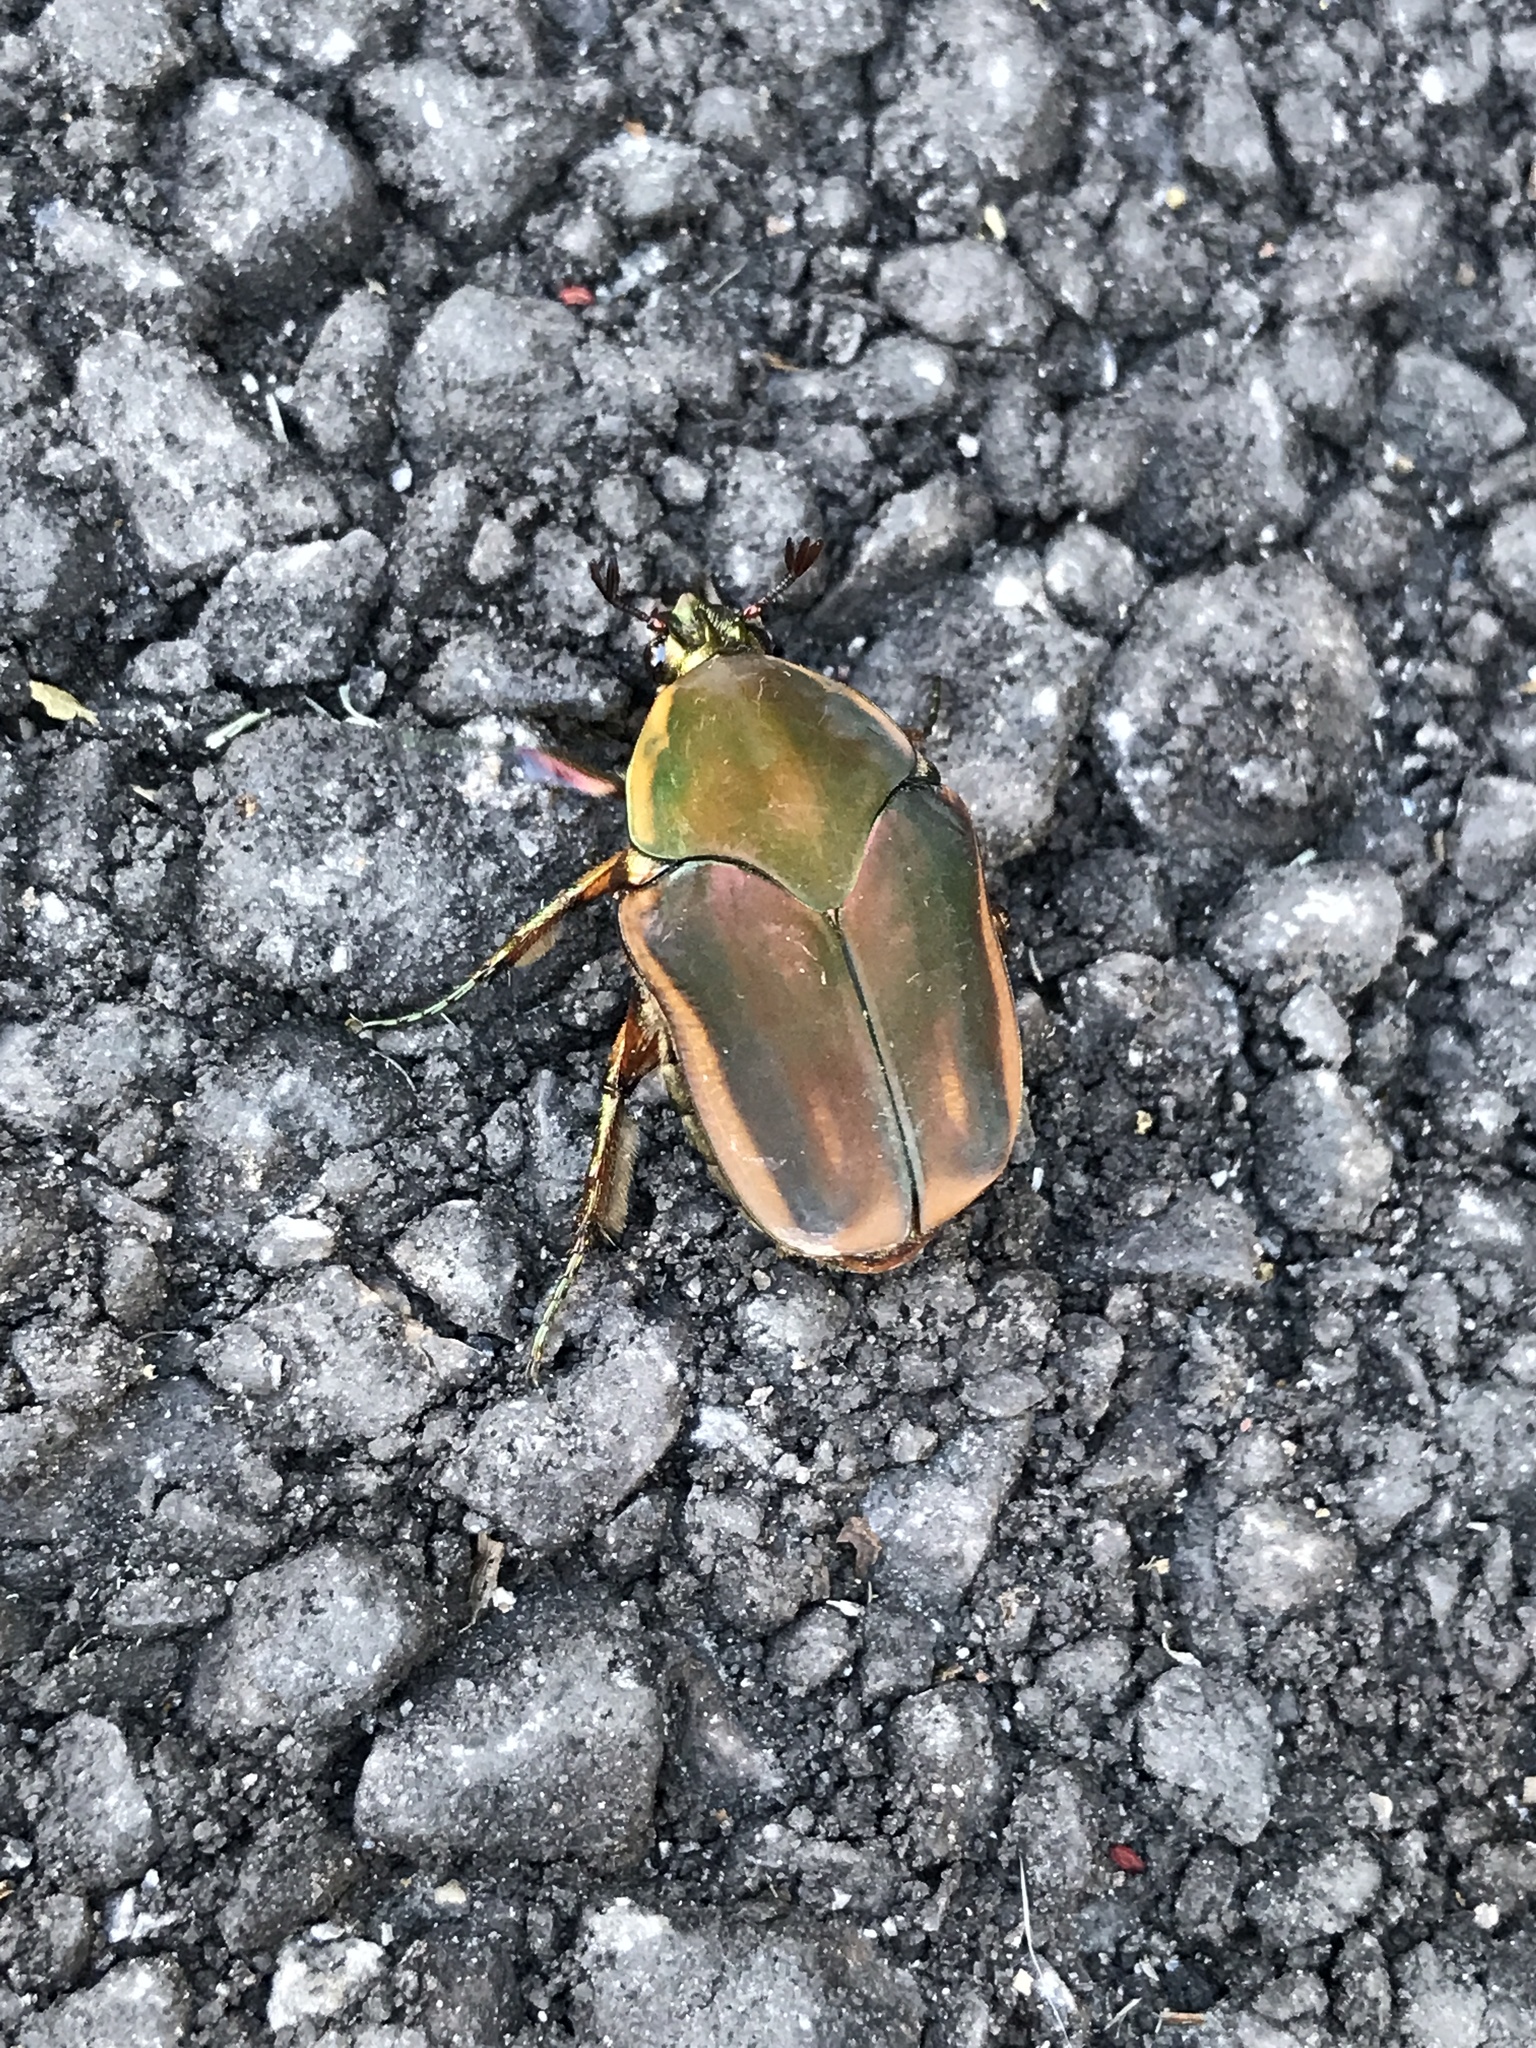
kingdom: Animalia
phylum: Arthropoda
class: Insecta
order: Coleoptera
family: Scarabaeidae
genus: Cotinis
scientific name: Cotinis nitida
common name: Common green june beetle
